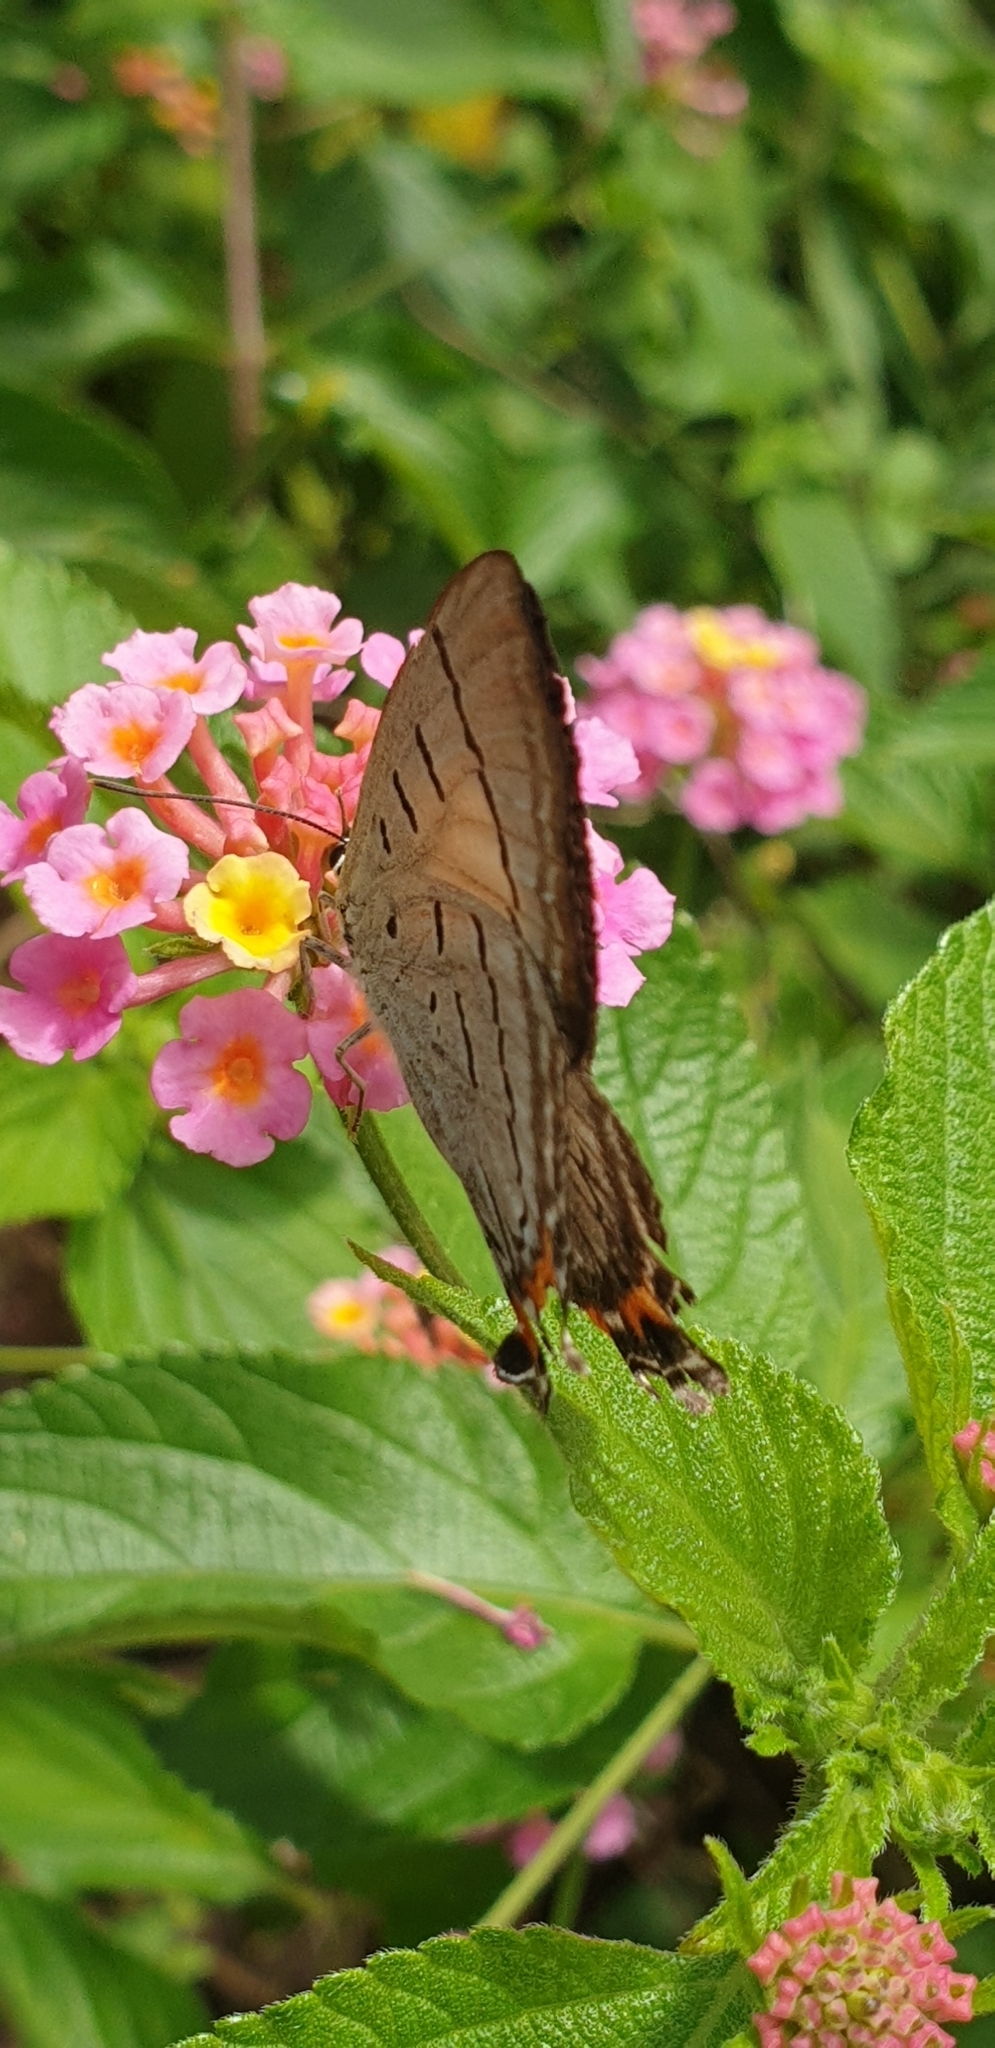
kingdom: Animalia
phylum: Arthropoda
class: Insecta
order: Lepidoptera
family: Lycaenidae
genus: Jalmenus
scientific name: Jalmenus evagoras
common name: Common imperial blue
